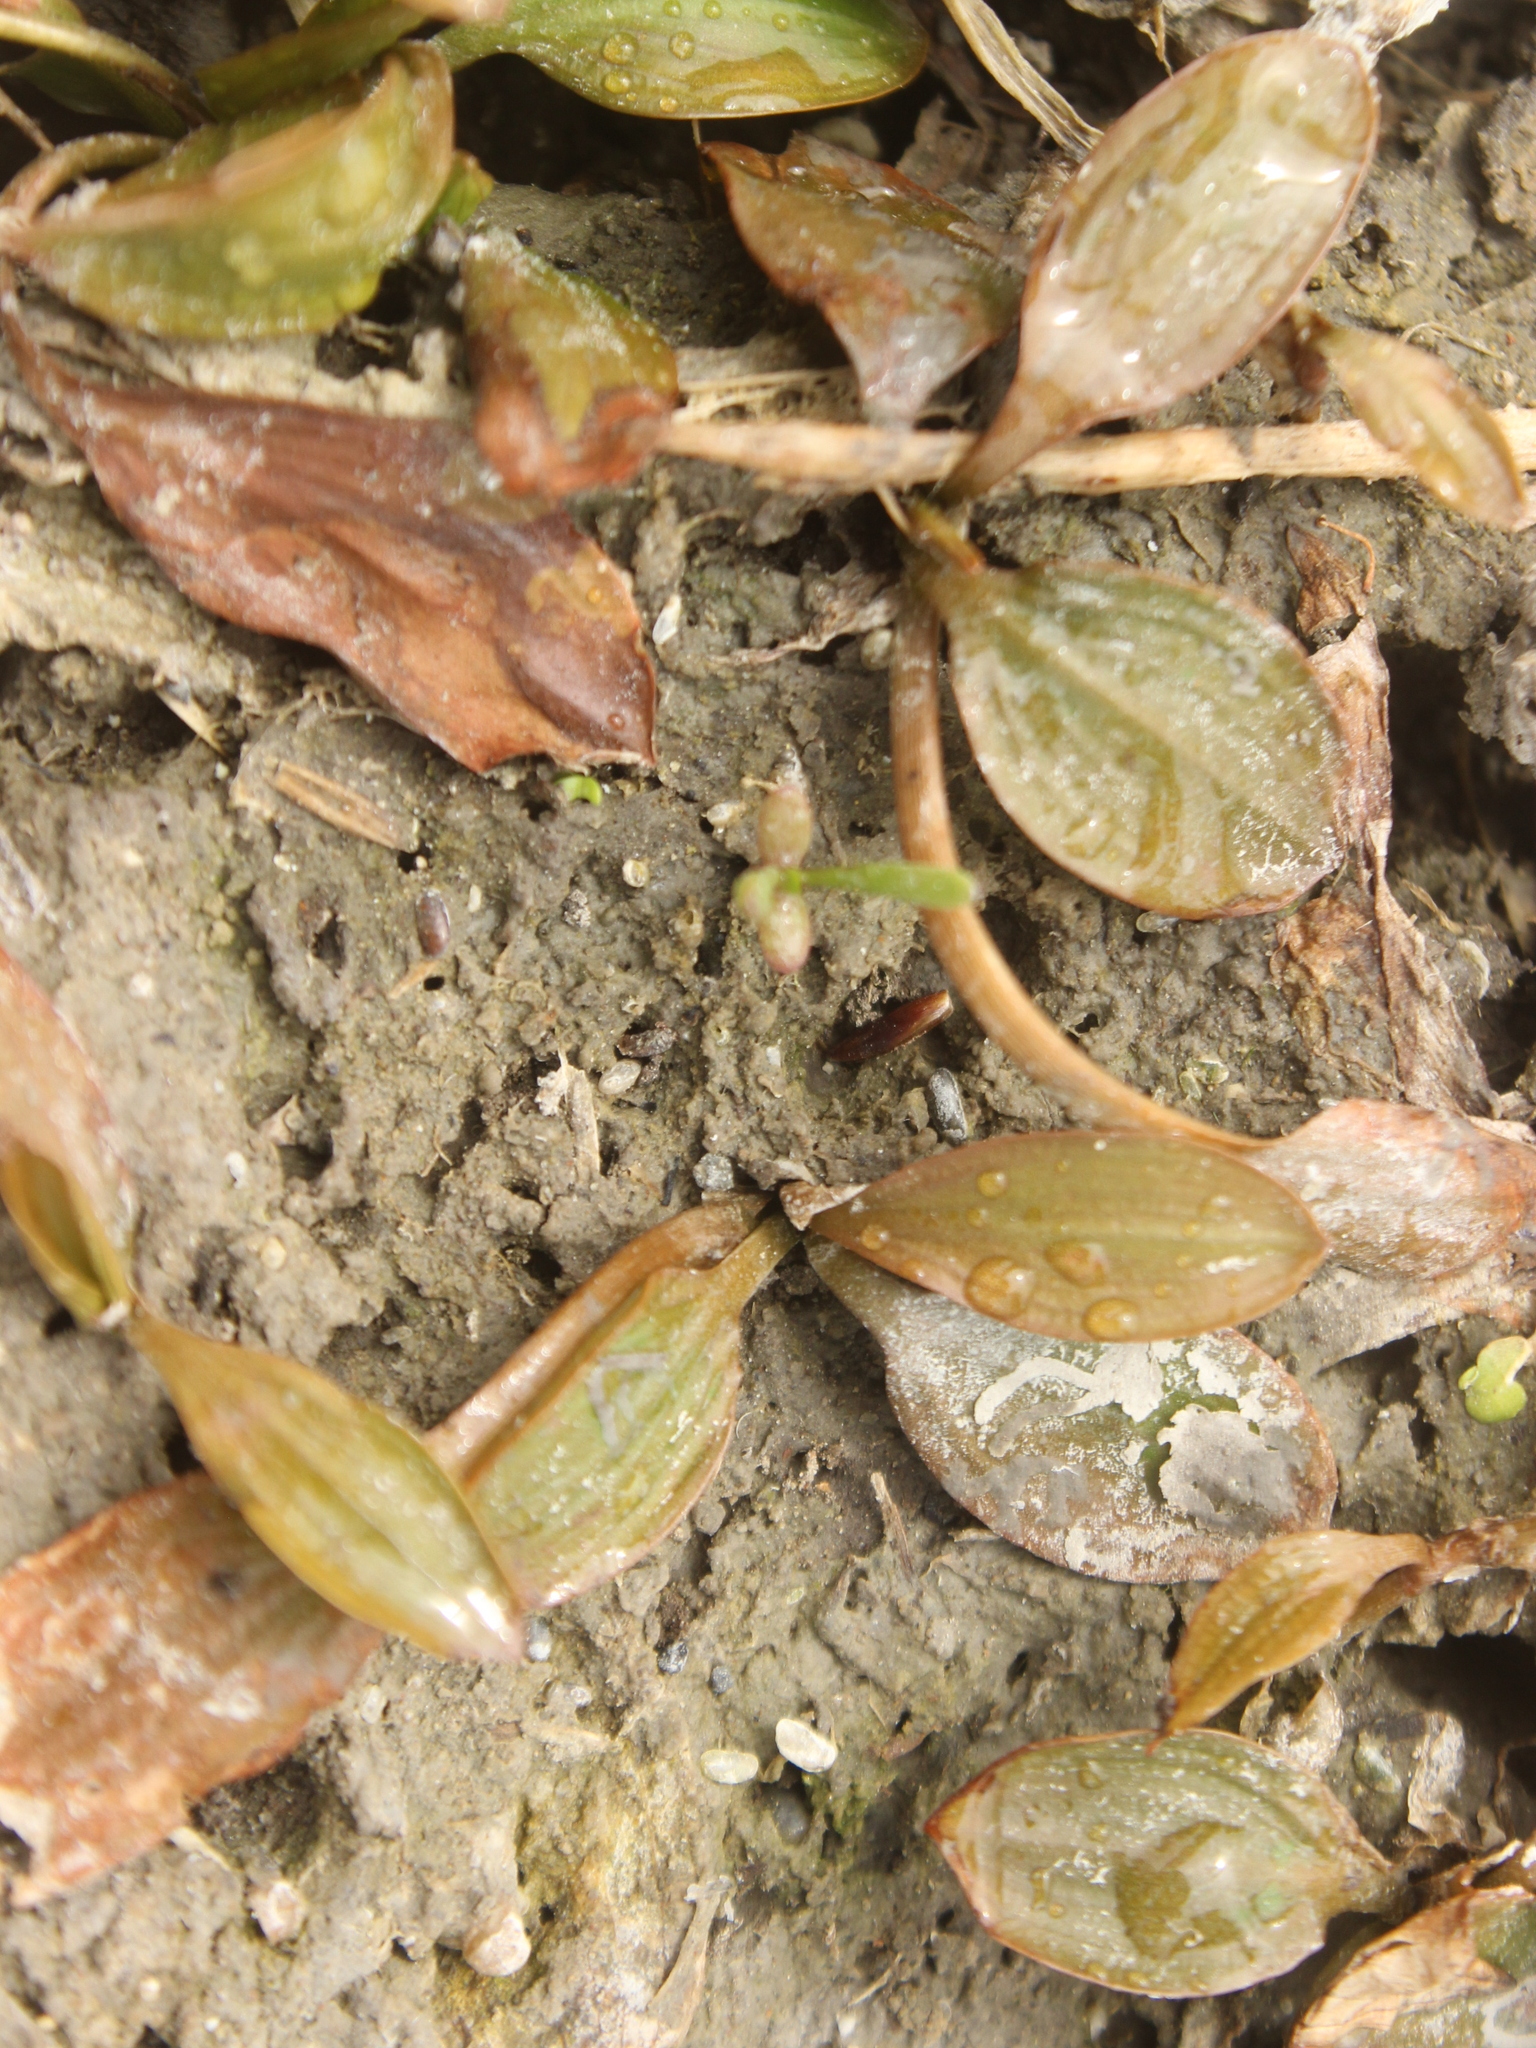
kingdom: Plantae
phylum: Tracheophyta
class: Liliopsida
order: Alismatales
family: Potamogetonaceae
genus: Potamogeton
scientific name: Potamogeton cheesemanii
